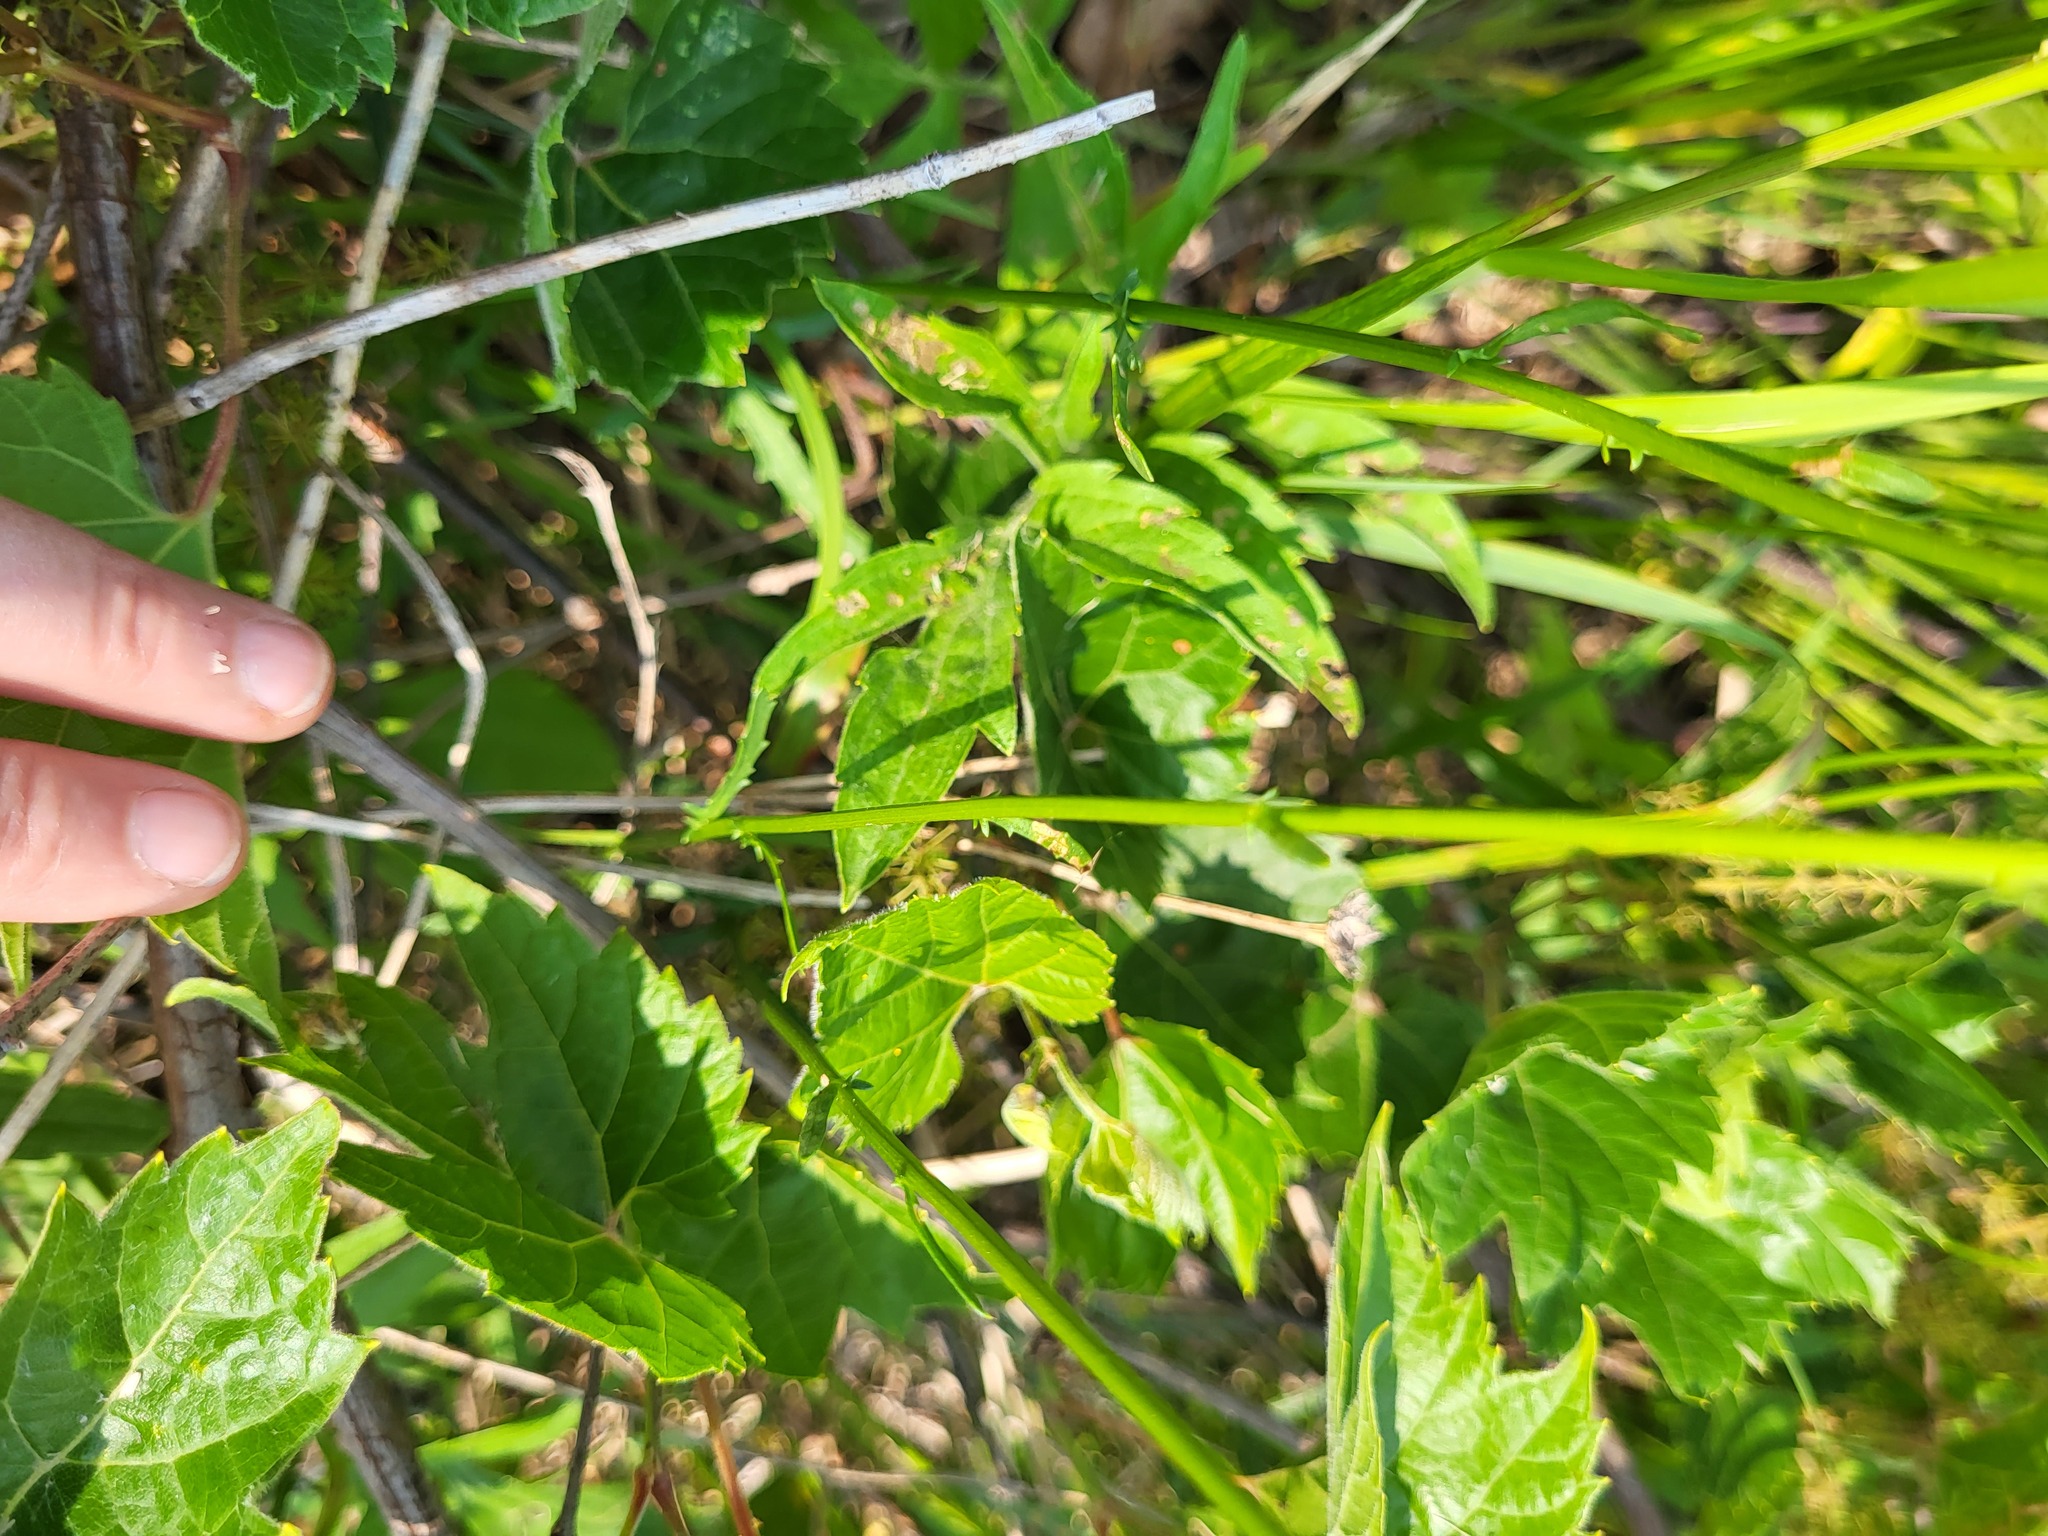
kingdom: Plantae
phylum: Tracheophyta
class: Magnoliopsida
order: Asterales
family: Asteraceae
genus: Leucanthemum
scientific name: Leucanthemum vulgare
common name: Oxeye daisy
